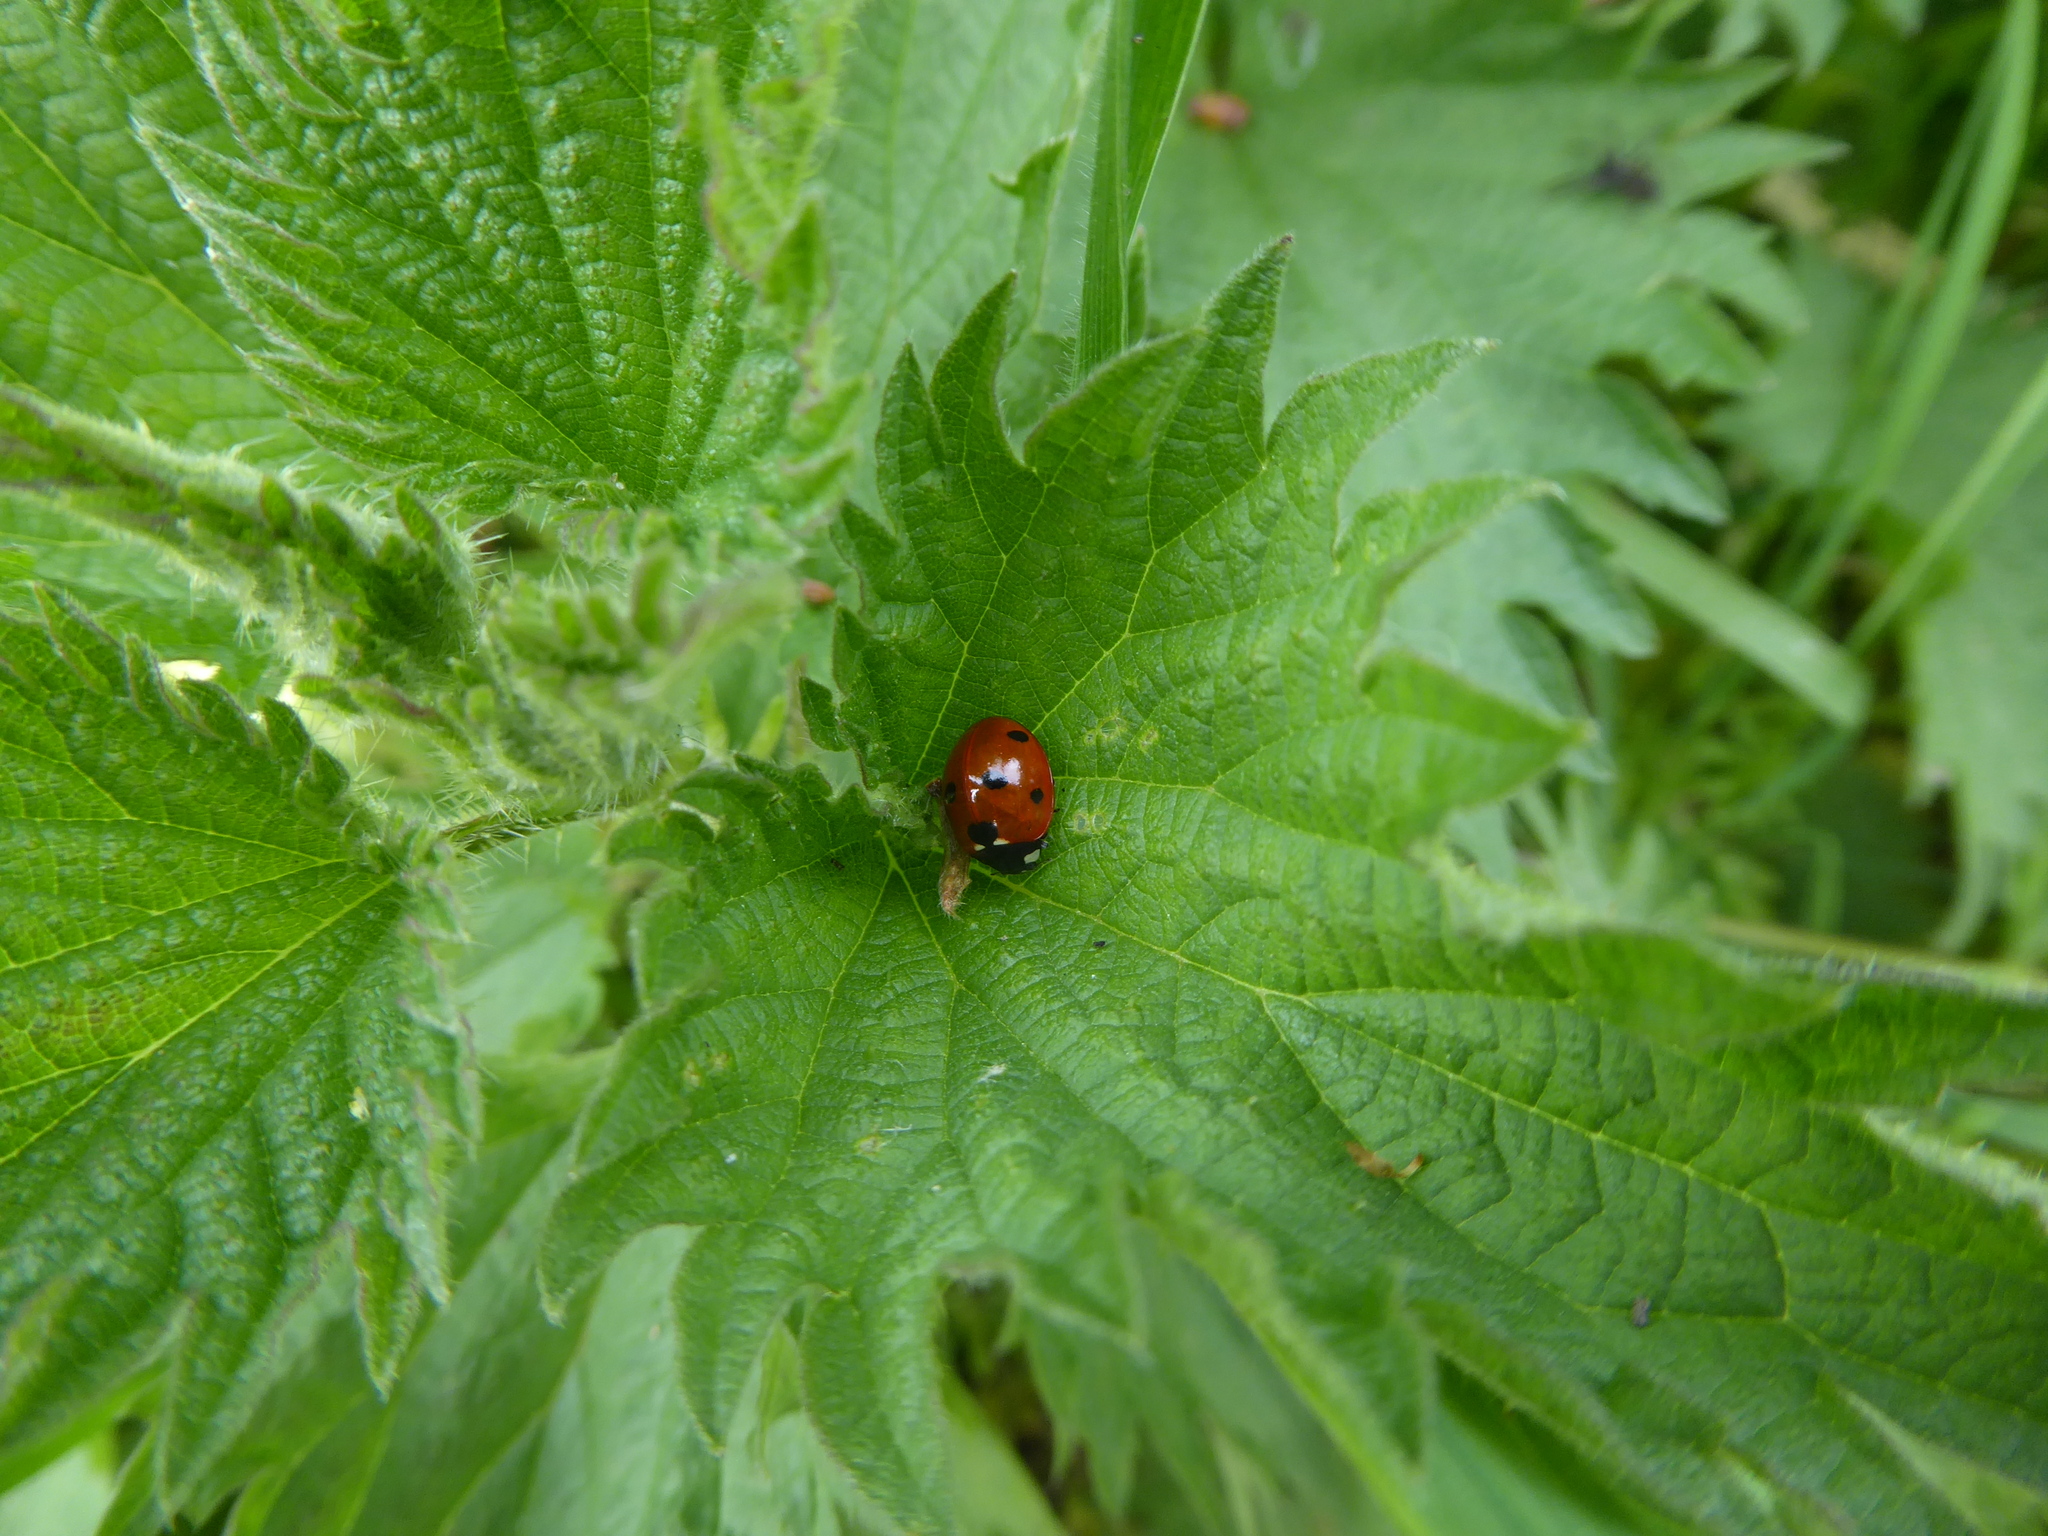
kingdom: Animalia
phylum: Arthropoda
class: Insecta
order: Coleoptera
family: Coccinellidae
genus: Coccinella
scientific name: Coccinella septempunctata
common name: Sevenspotted lady beetle
